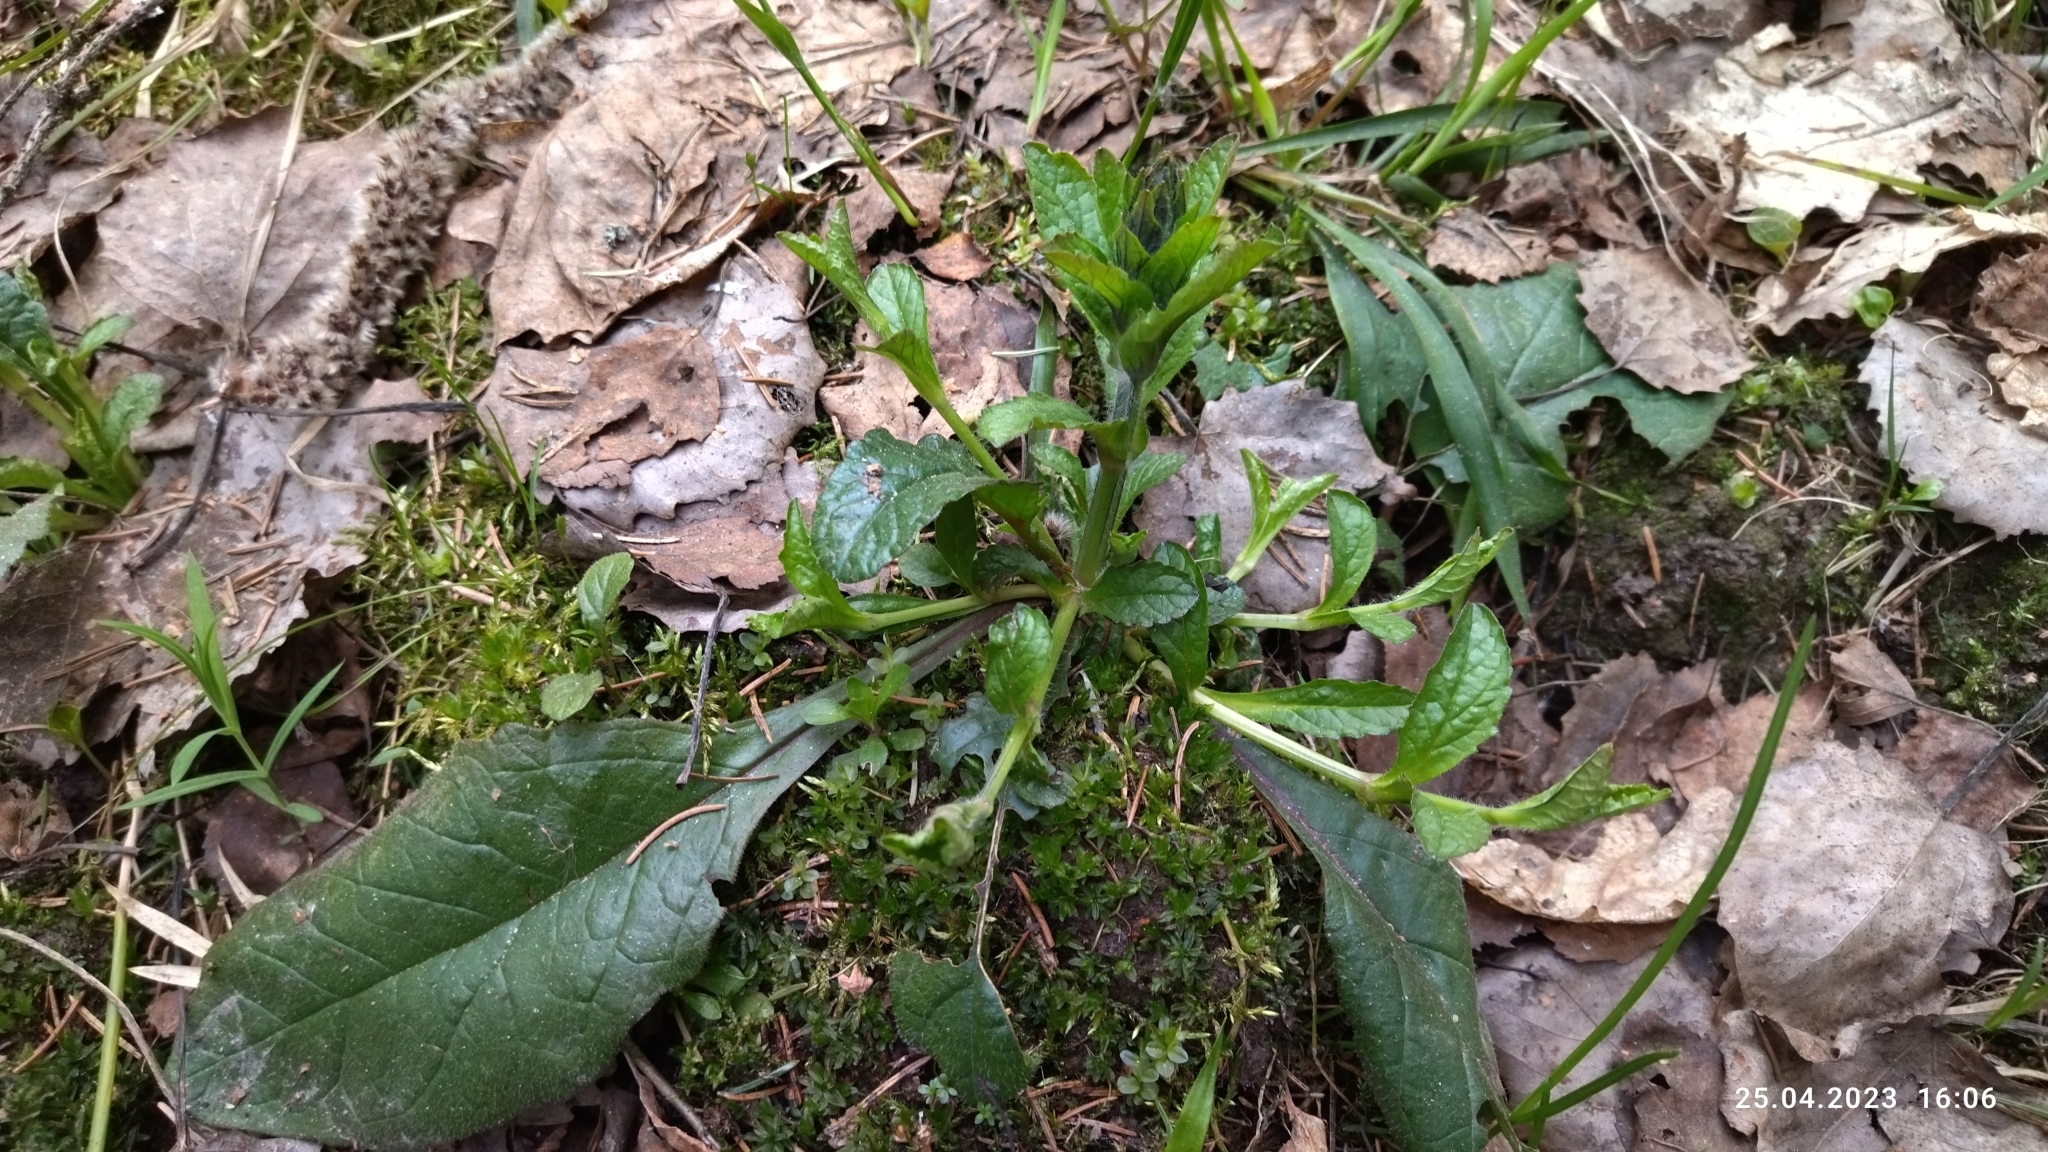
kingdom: Plantae
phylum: Tracheophyta
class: Magnoliopsida
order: Lamiales
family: Lamiaceae
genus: Ajuga
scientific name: Ajuga reptans
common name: Bugle
